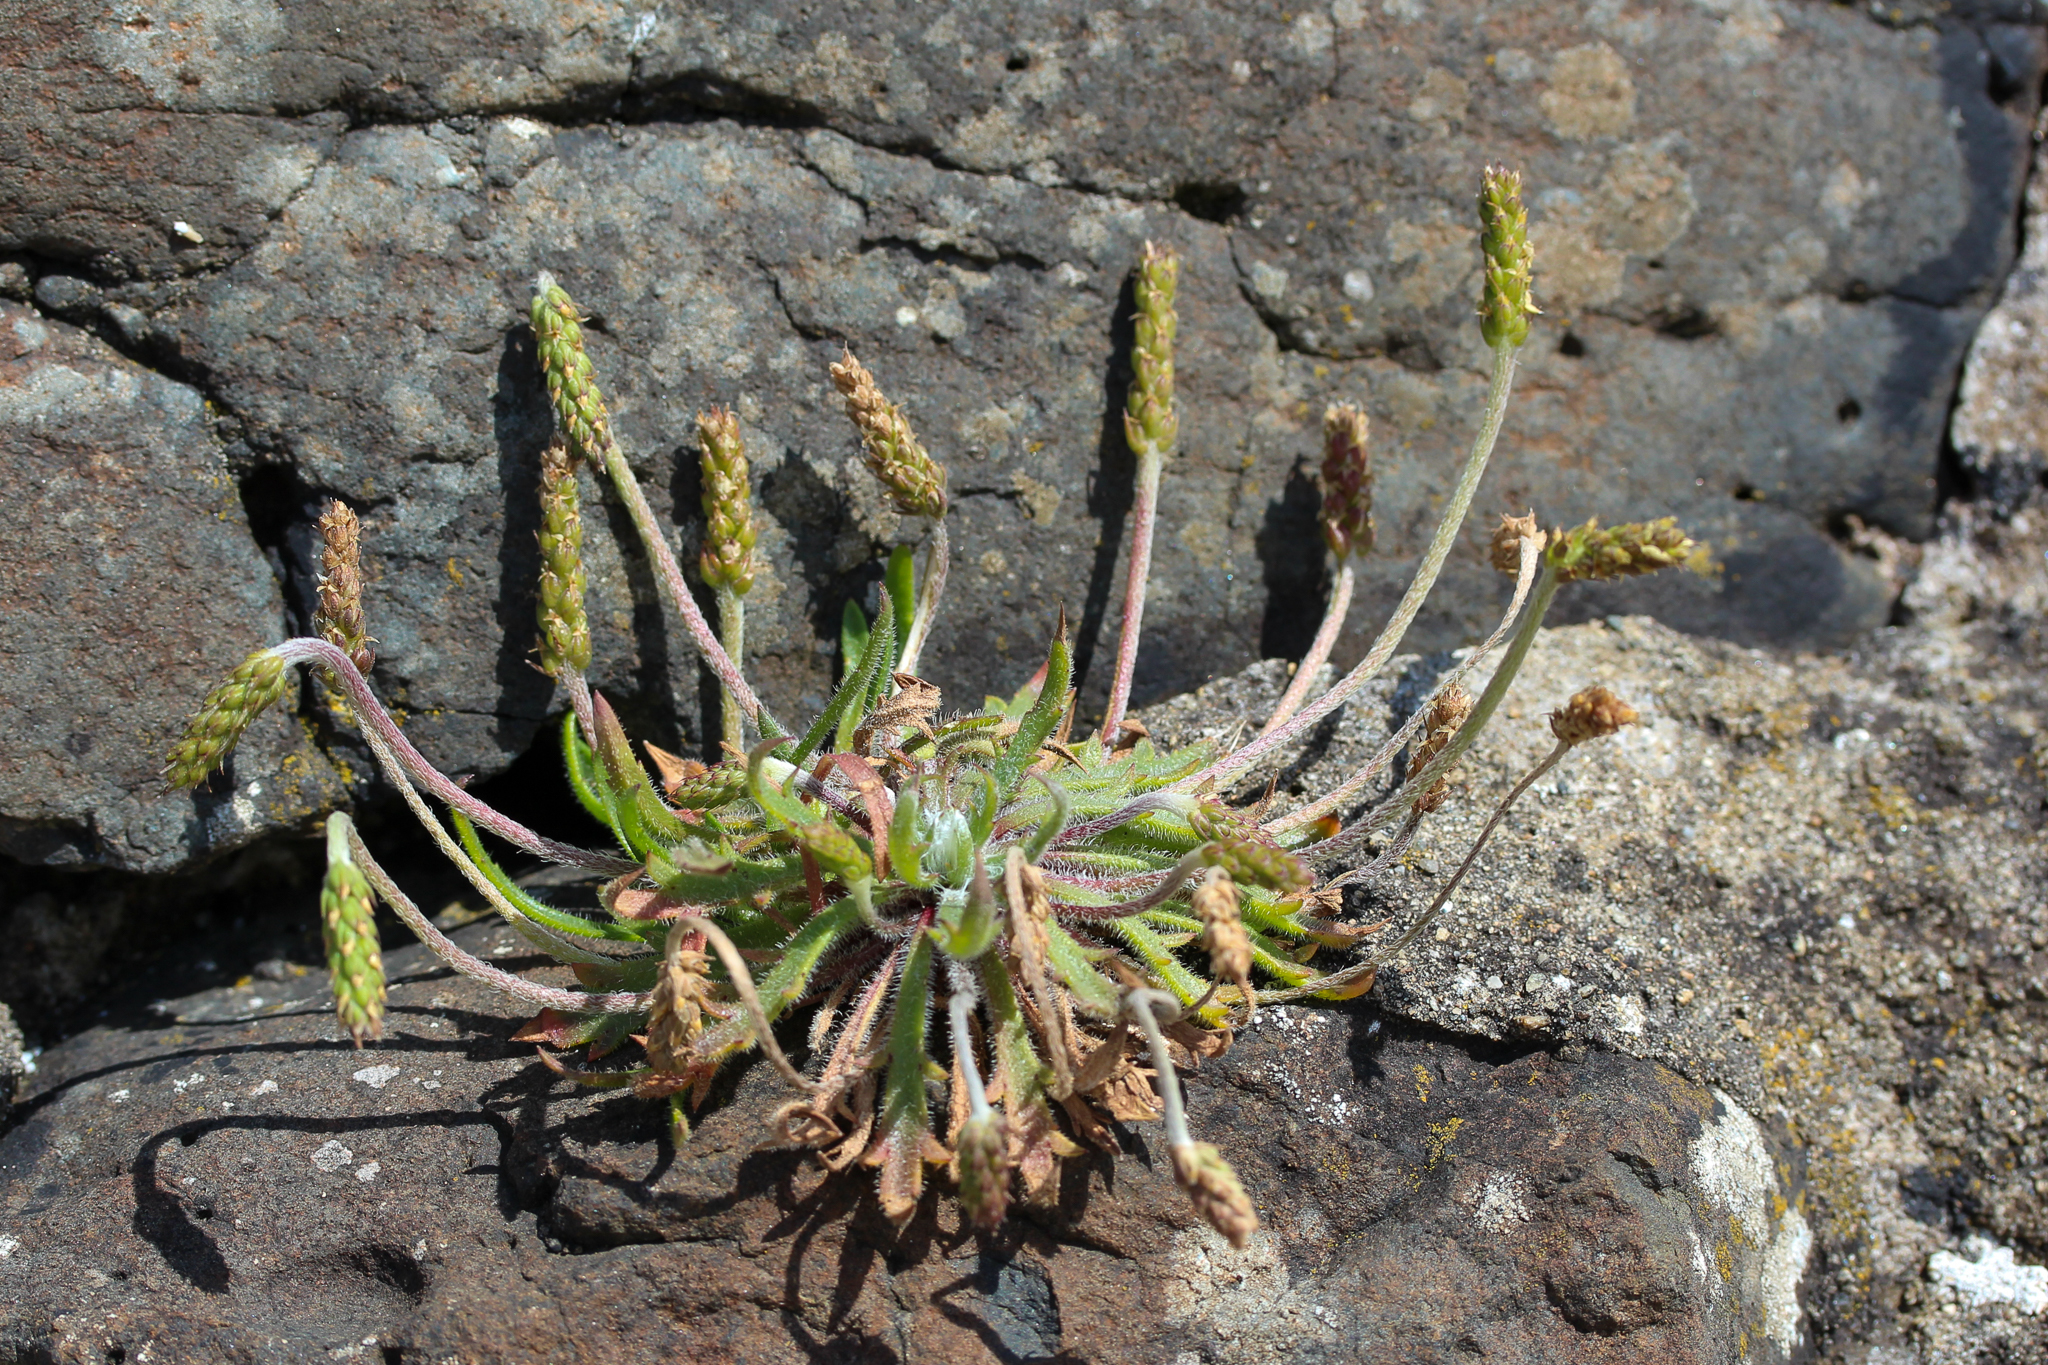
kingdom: Plantae
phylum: Tracheophyta
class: Magnoliopsida
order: Lamiales
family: Plantaginaceae
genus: Plantago
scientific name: Plantago maritima
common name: Sea plantain
